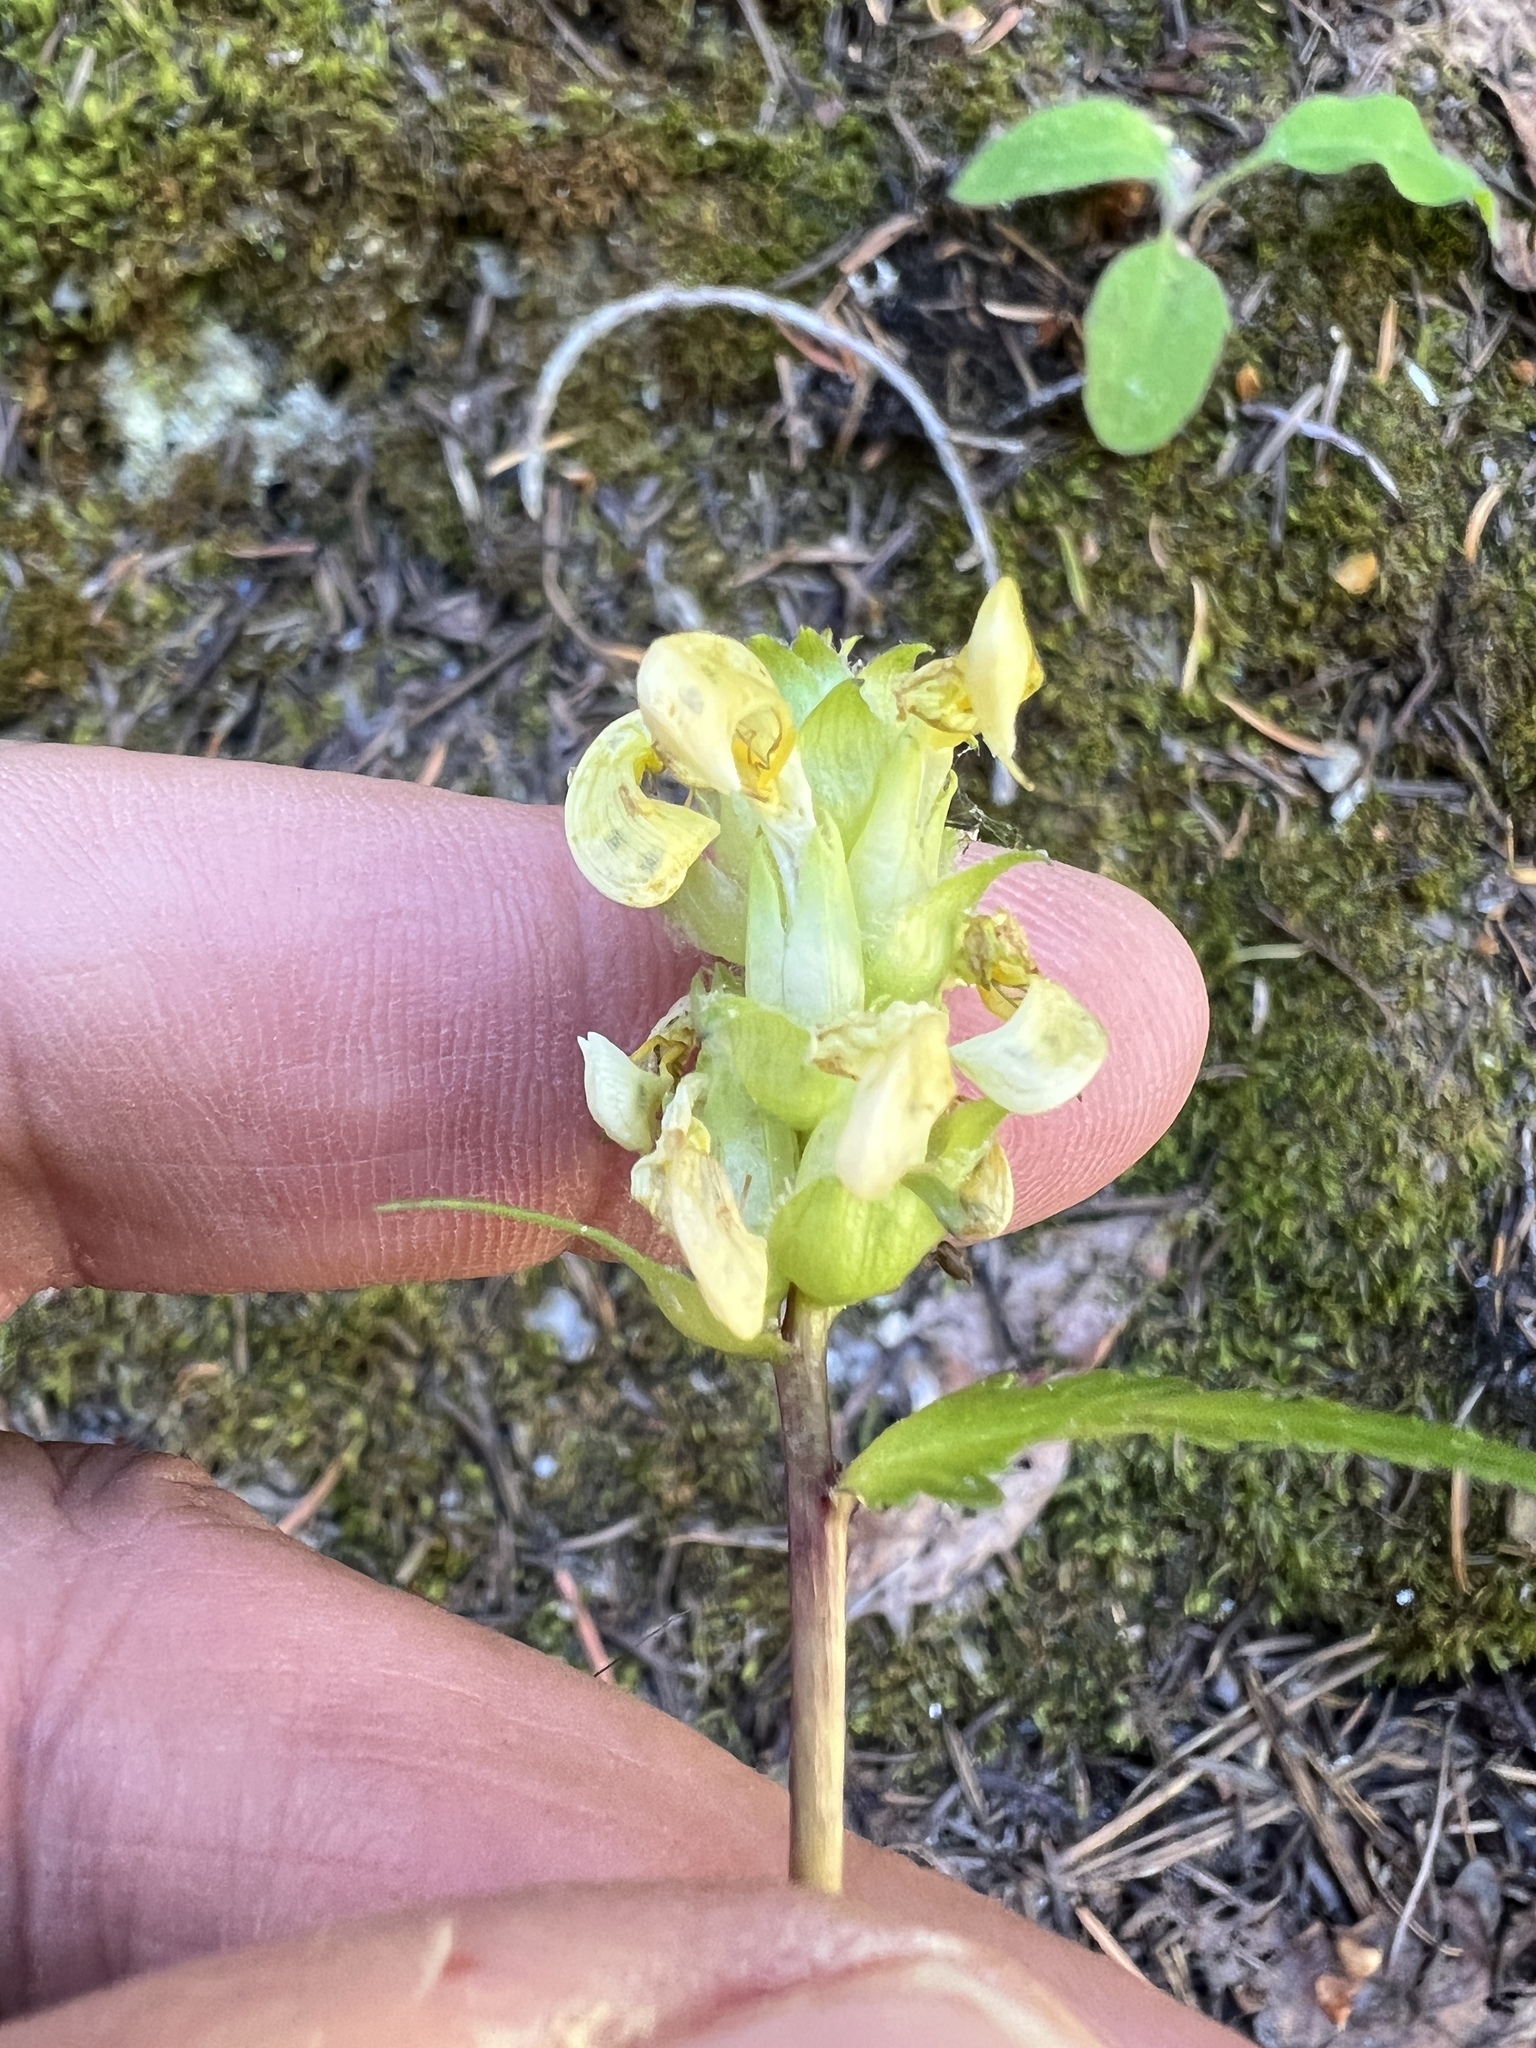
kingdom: Plantae
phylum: Tracheophyta
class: Magnoliopsida
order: Lamiales
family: Orobanchaceae
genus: Pedicularis
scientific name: Pedicularis bracteosa
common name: Bracted lousewort
